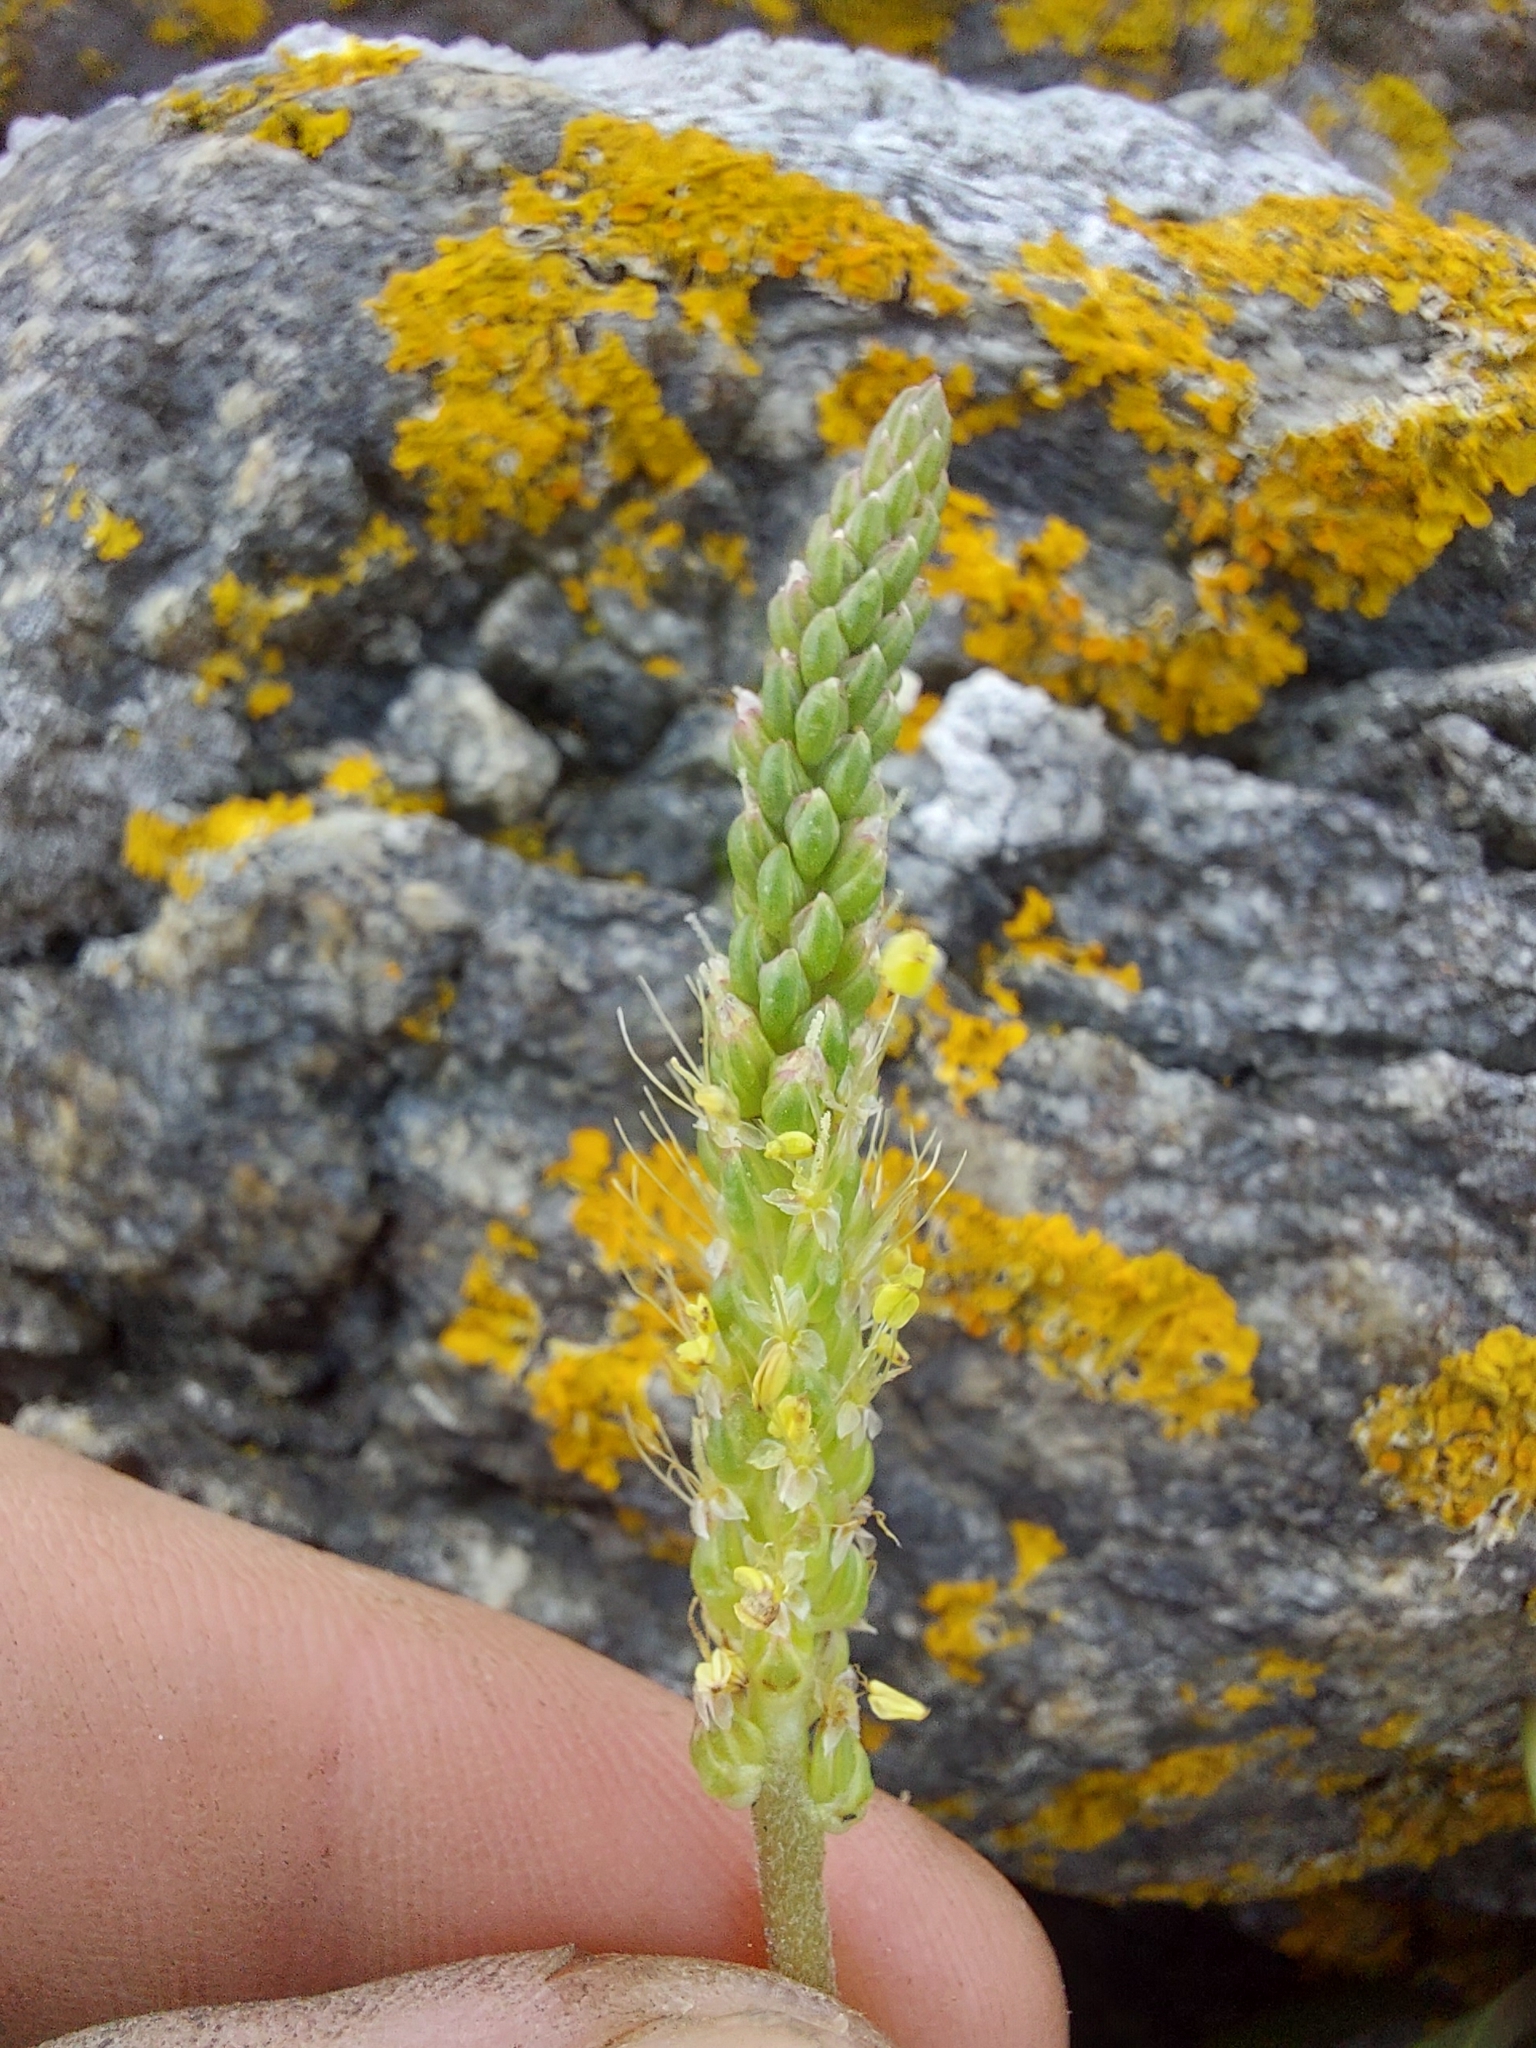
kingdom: Plantae
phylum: Tracheophyta
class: Magnoliopsida
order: Lamiales
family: Plantaginaceae
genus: Plantago
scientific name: Plantago maritima
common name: Sea plantain
